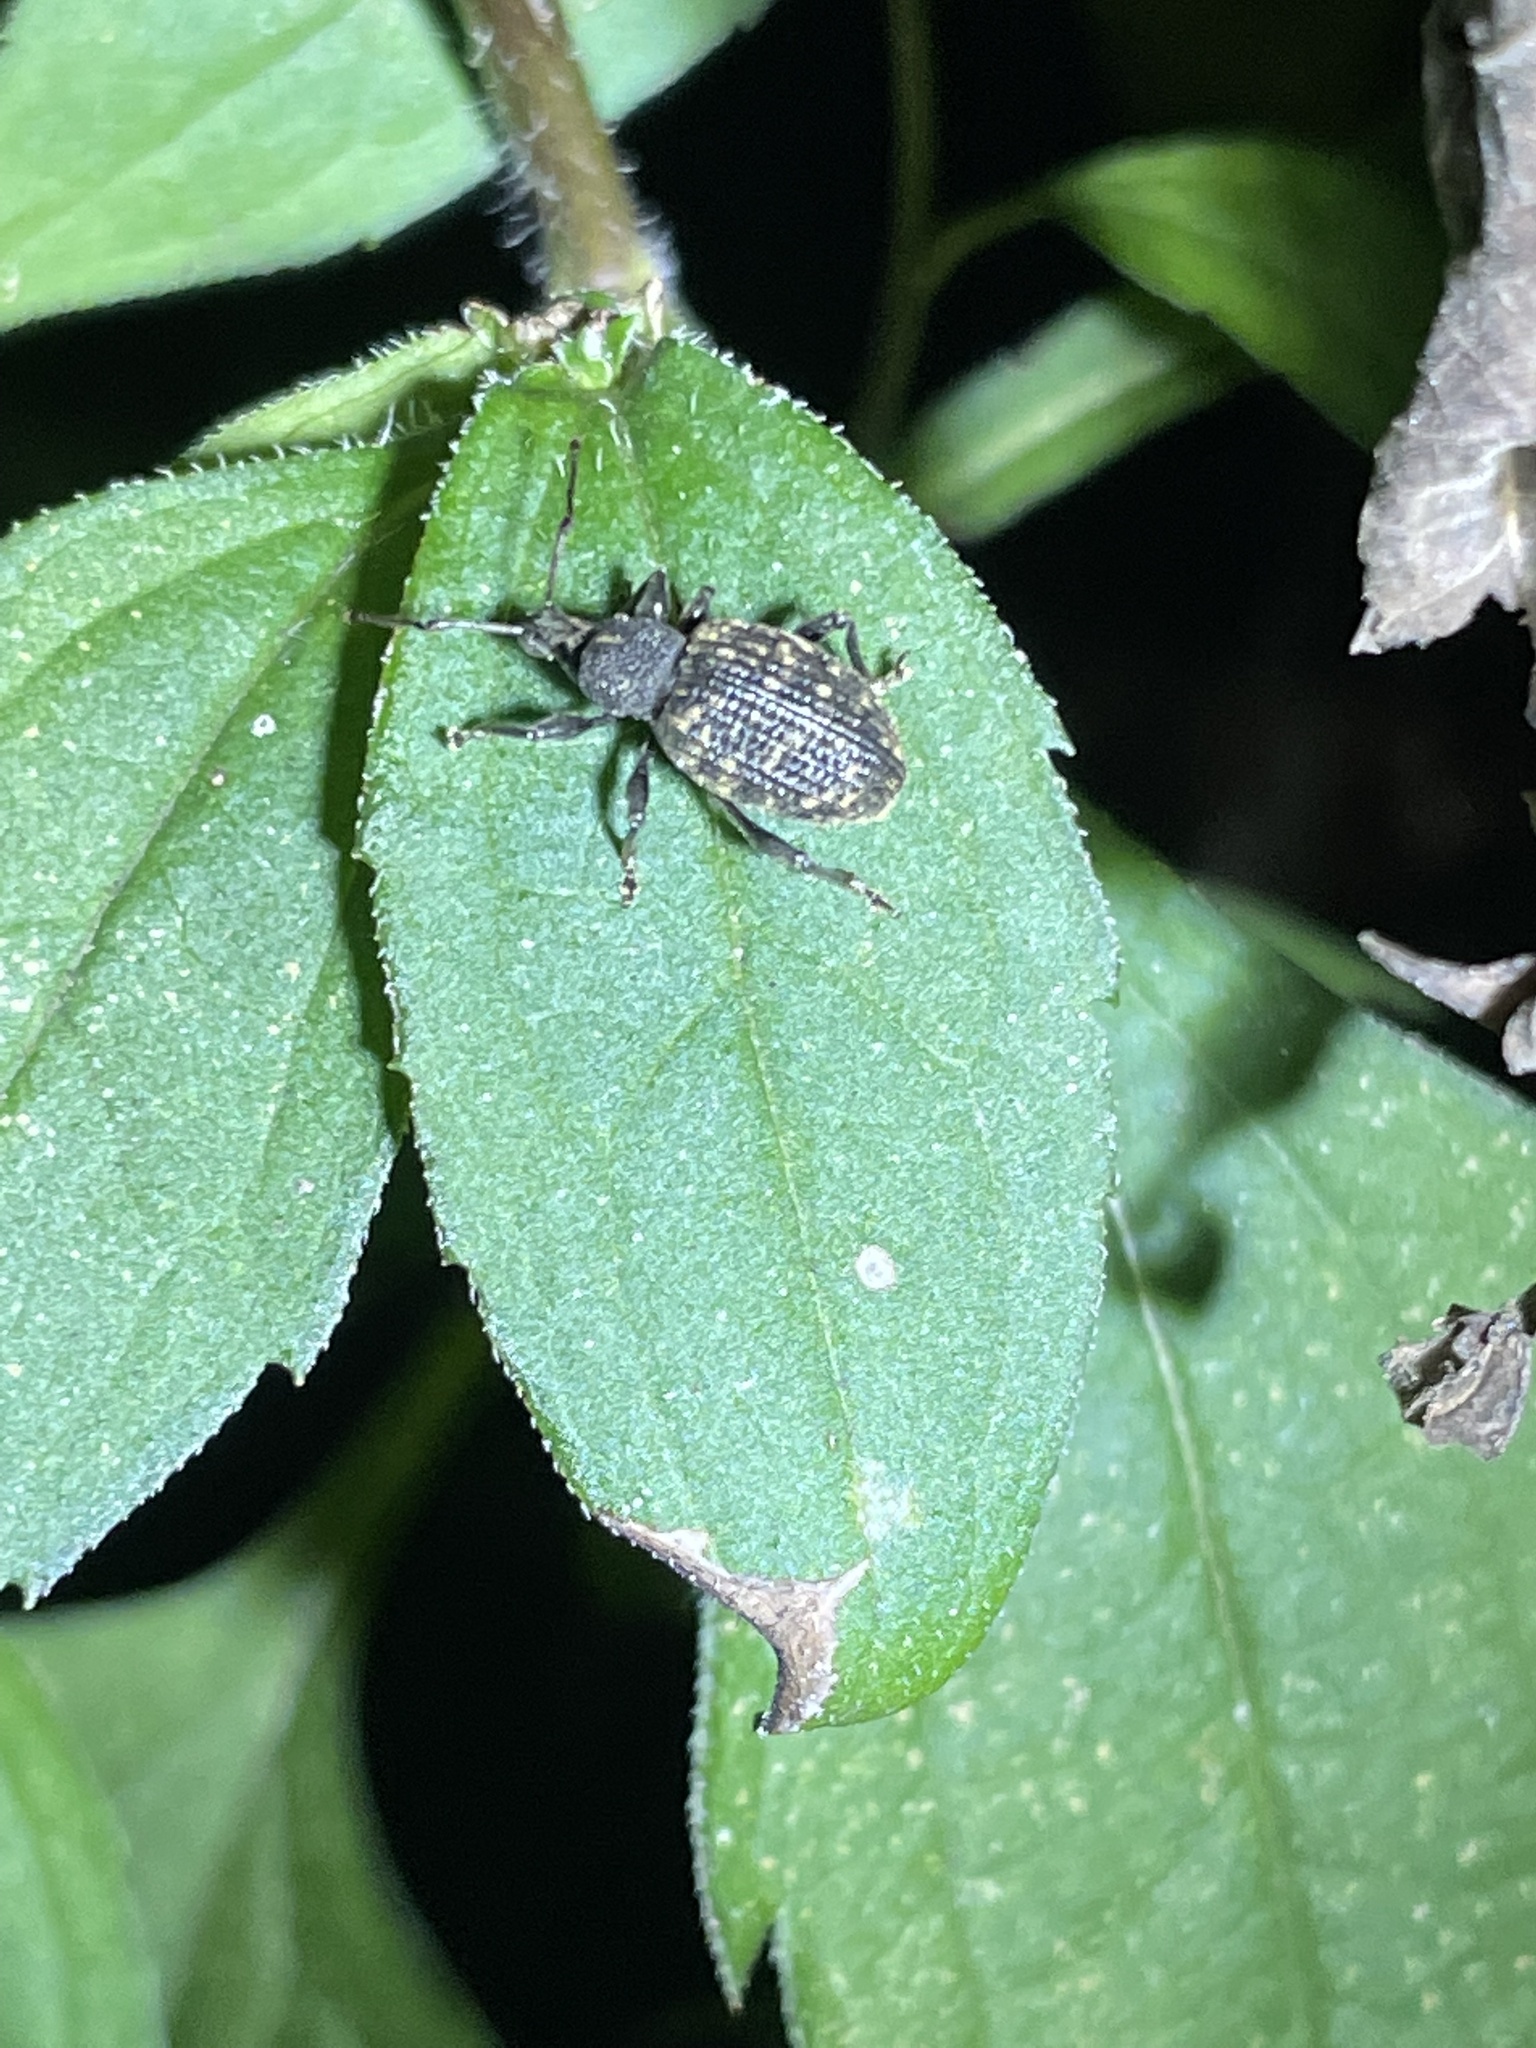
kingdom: Animalia
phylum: Arthropoda
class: Insecta
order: Coleoptera
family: Curculionidae
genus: Otiorhynchus
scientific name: Otiorhynchus sulcatus
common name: Black vine weevil
